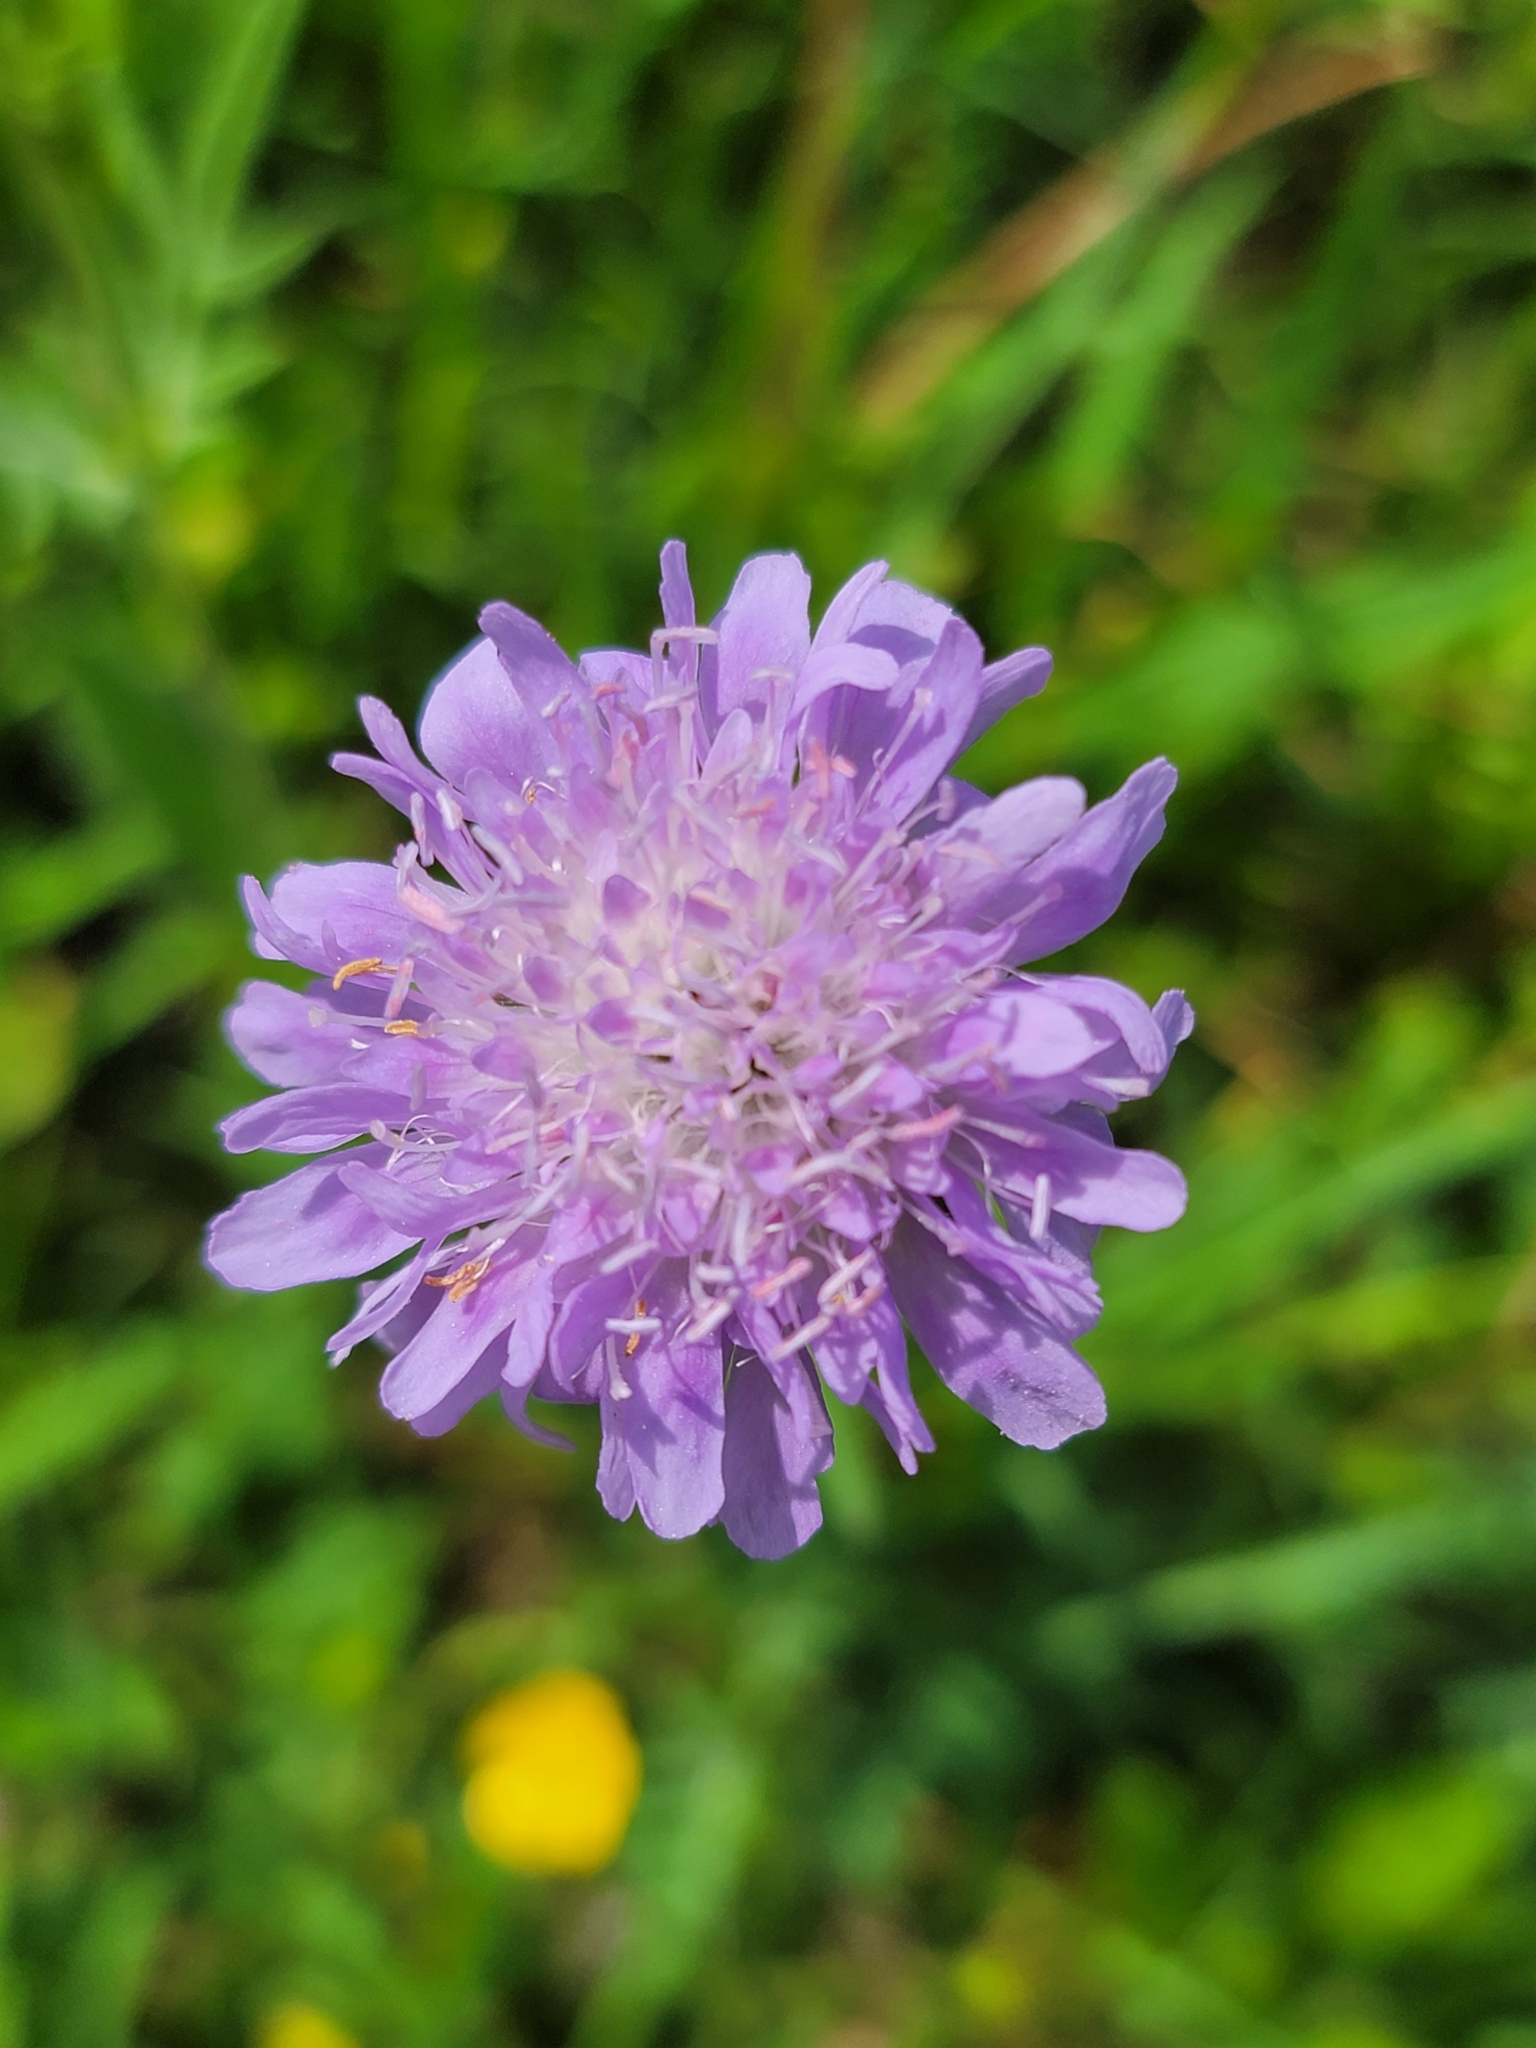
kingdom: Plantae
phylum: Tracheophyta
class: Magnoliopsida
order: Dipsacales
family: Caprifoliaceae
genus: Knautia
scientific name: Knautia arvensis
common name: Field scabiosa
